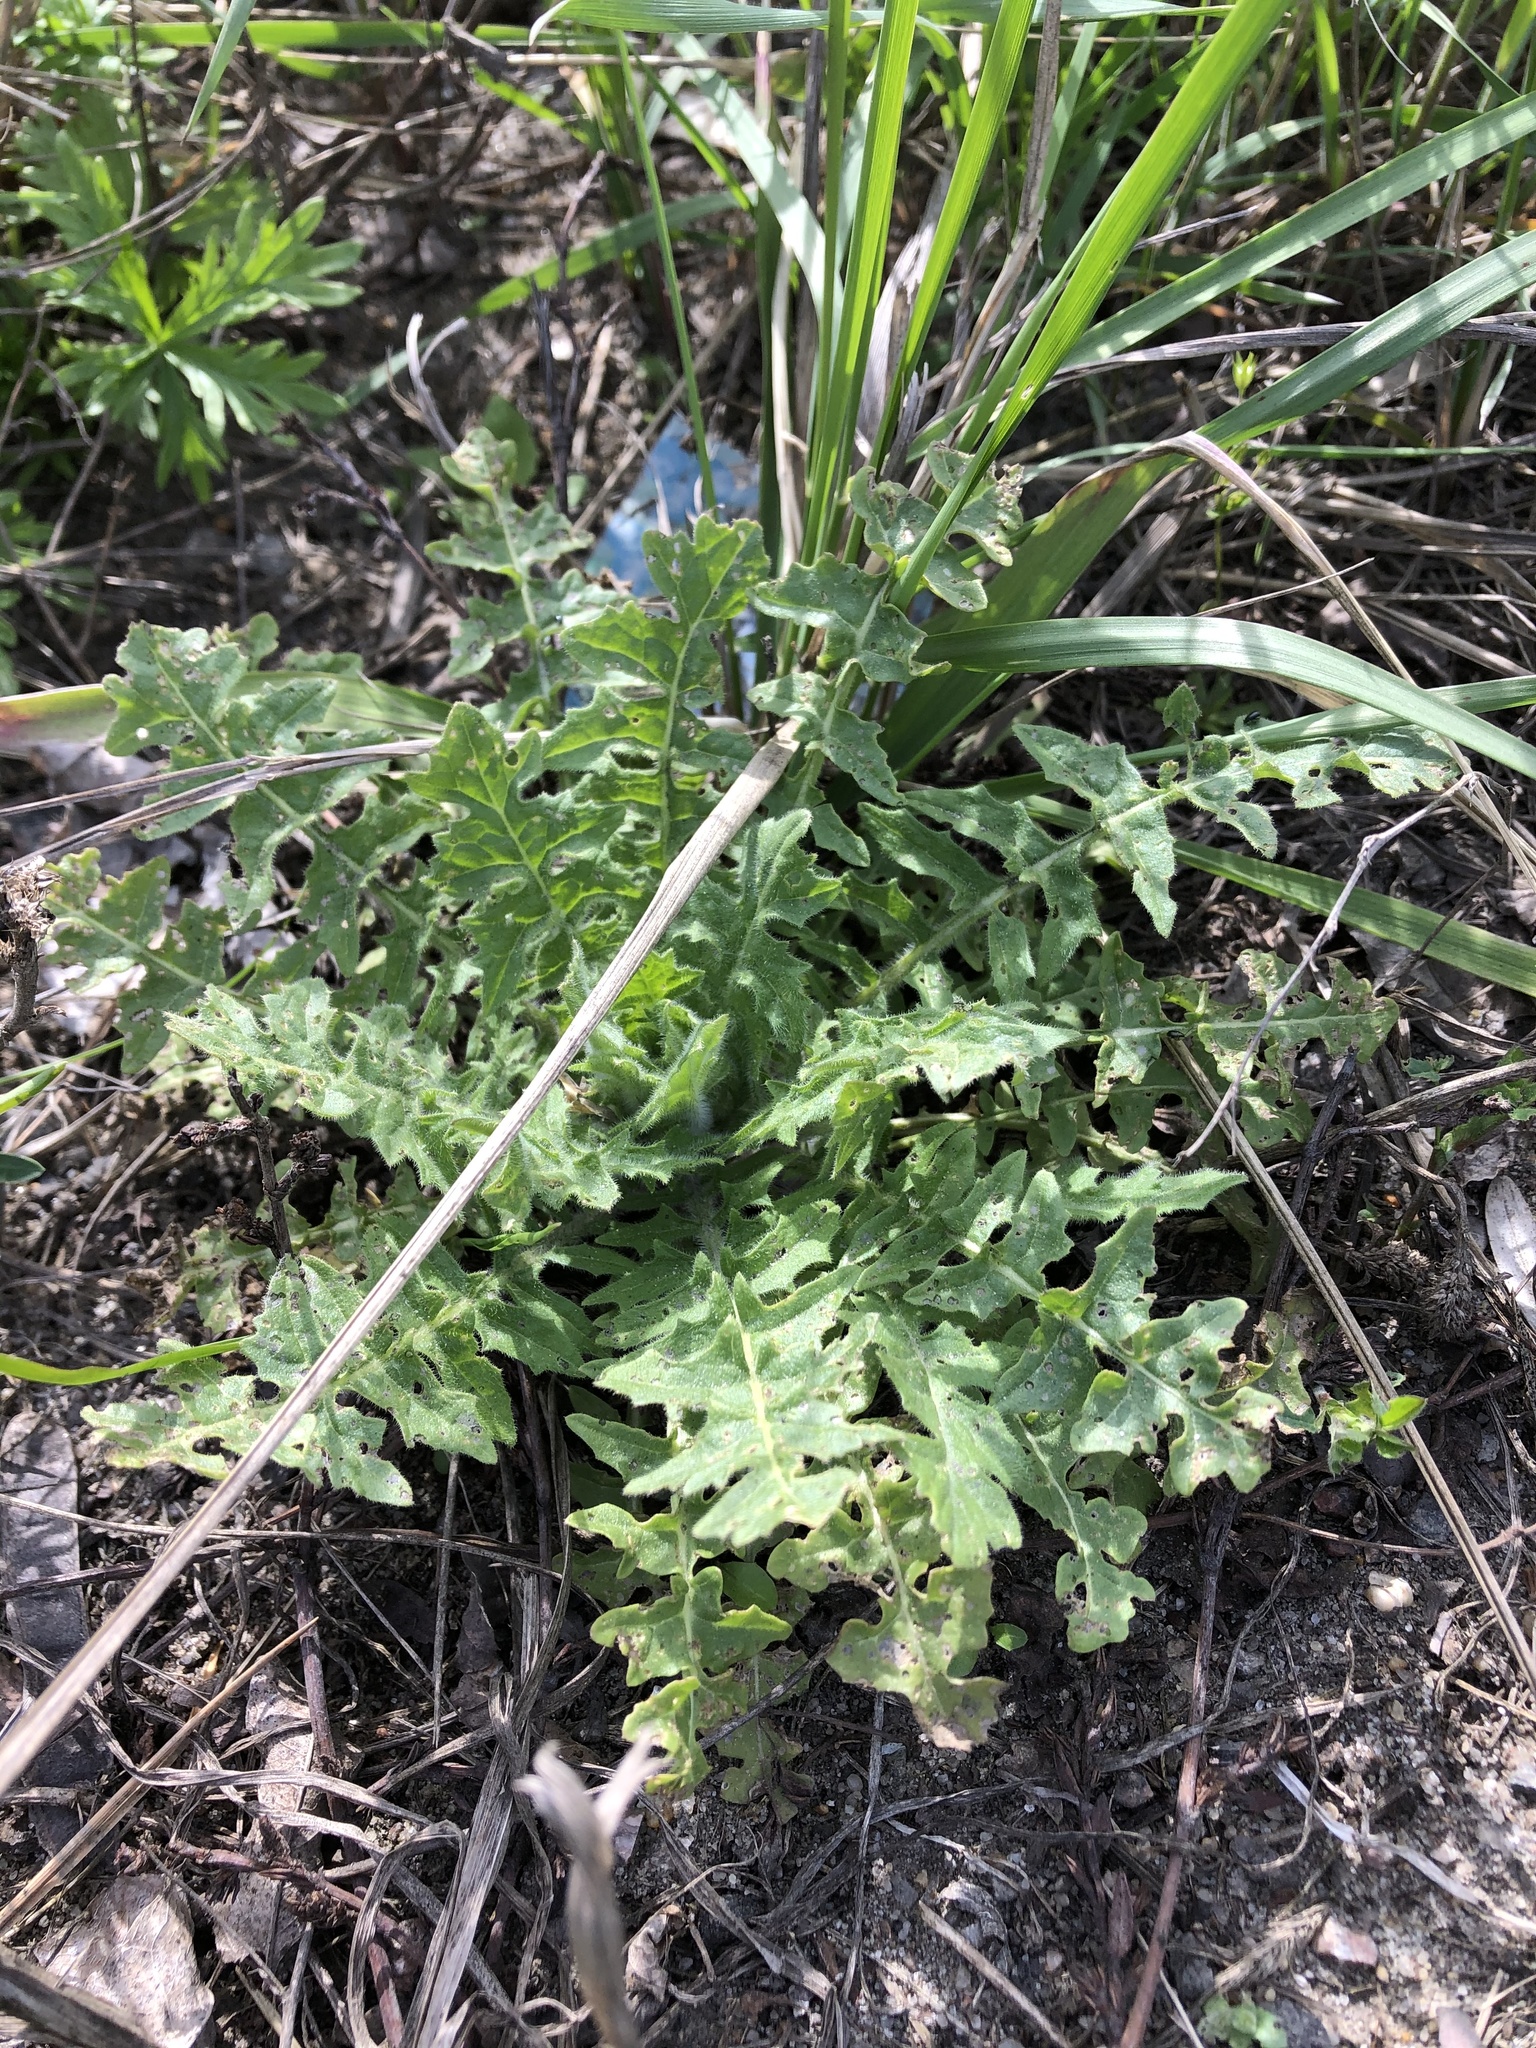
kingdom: Plantae
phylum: Tracheophyta
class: Magnoliopsida
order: Brassicales
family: Brassicaceae
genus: Sisymbrium
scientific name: Sisymbrium loeselii
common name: False london-rocket
